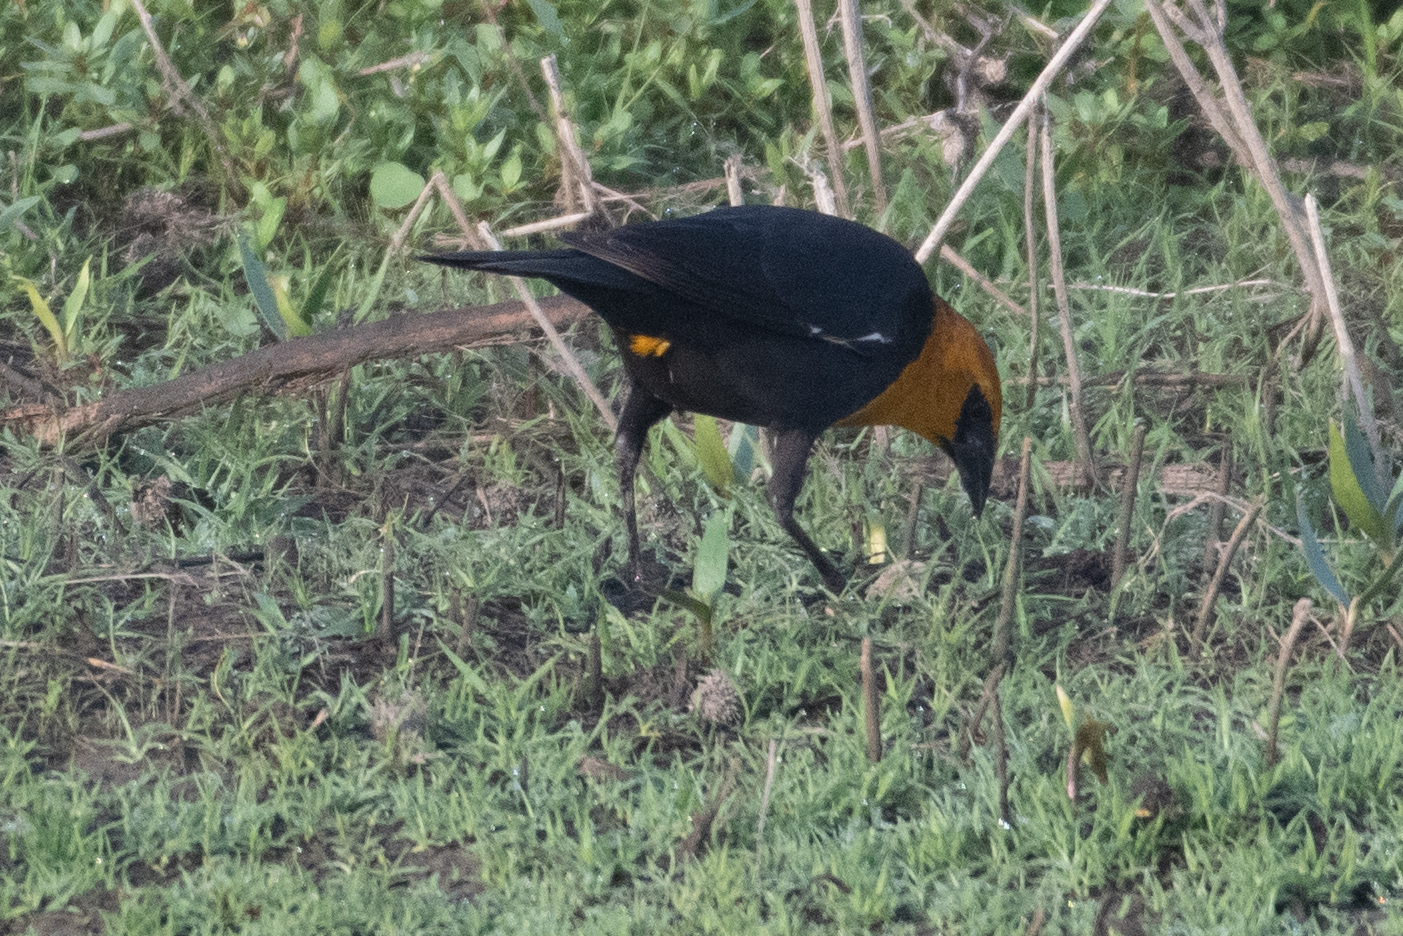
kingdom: Animalia
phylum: Chordata
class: Aves
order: Passeriformes
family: Icteridae
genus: Xanthocephalus
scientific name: Xanthocephalus xanthocephalus
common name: Yellow-headed blackbird
